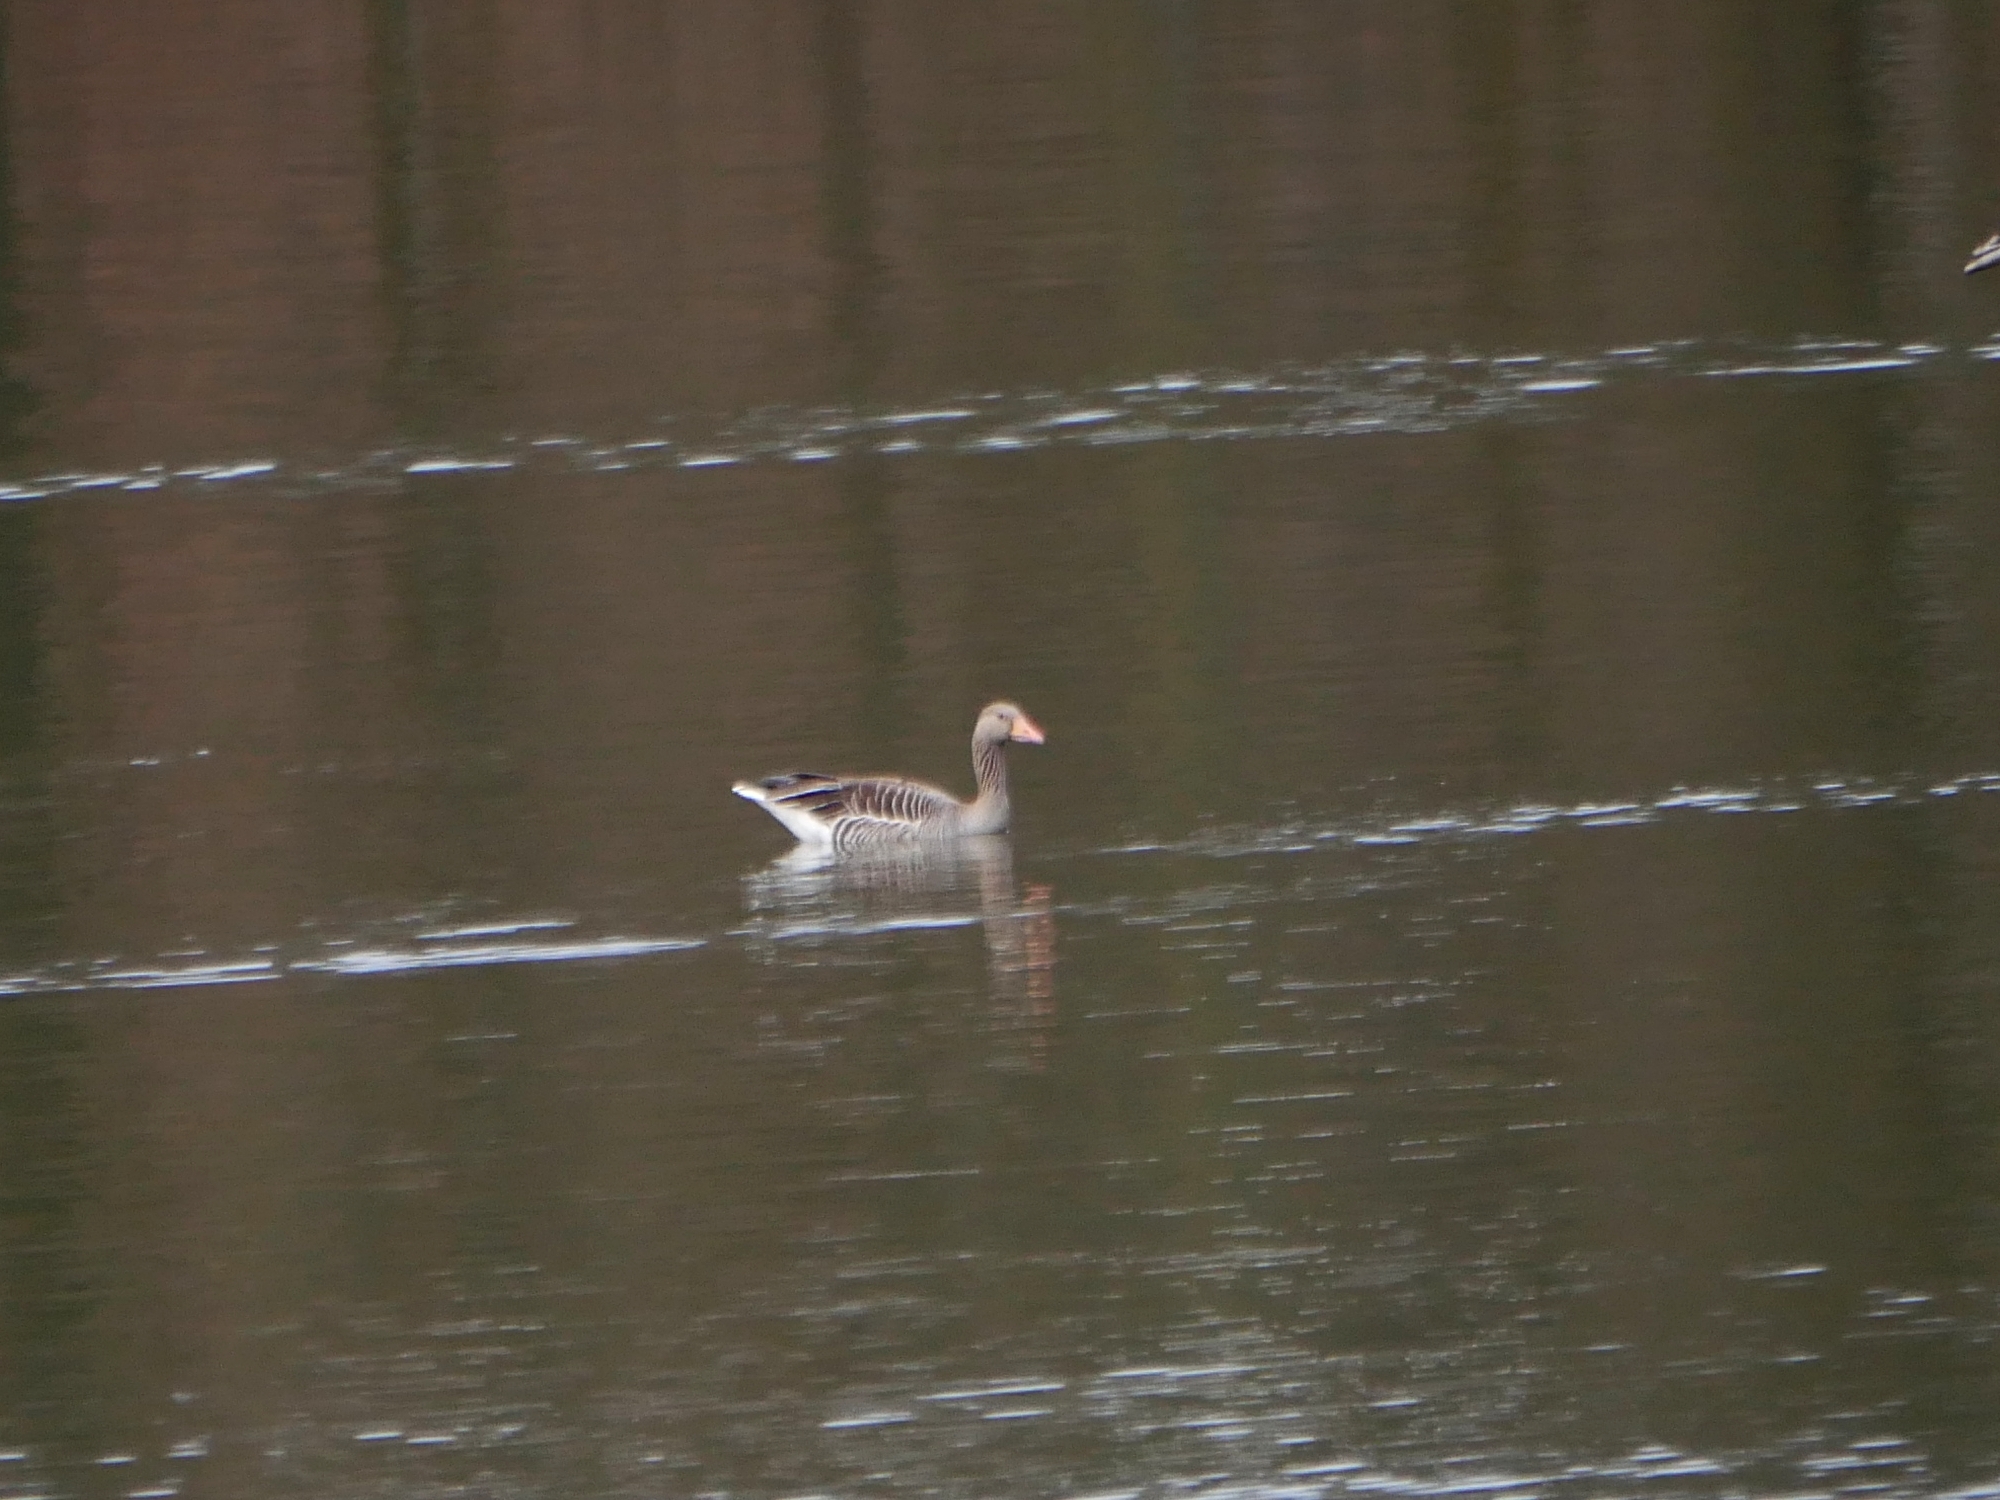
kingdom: Animalia
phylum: Chordata
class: Aves
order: Anseriformes
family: Anatidae
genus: Anser
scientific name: Anser anser
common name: Greylag goose
